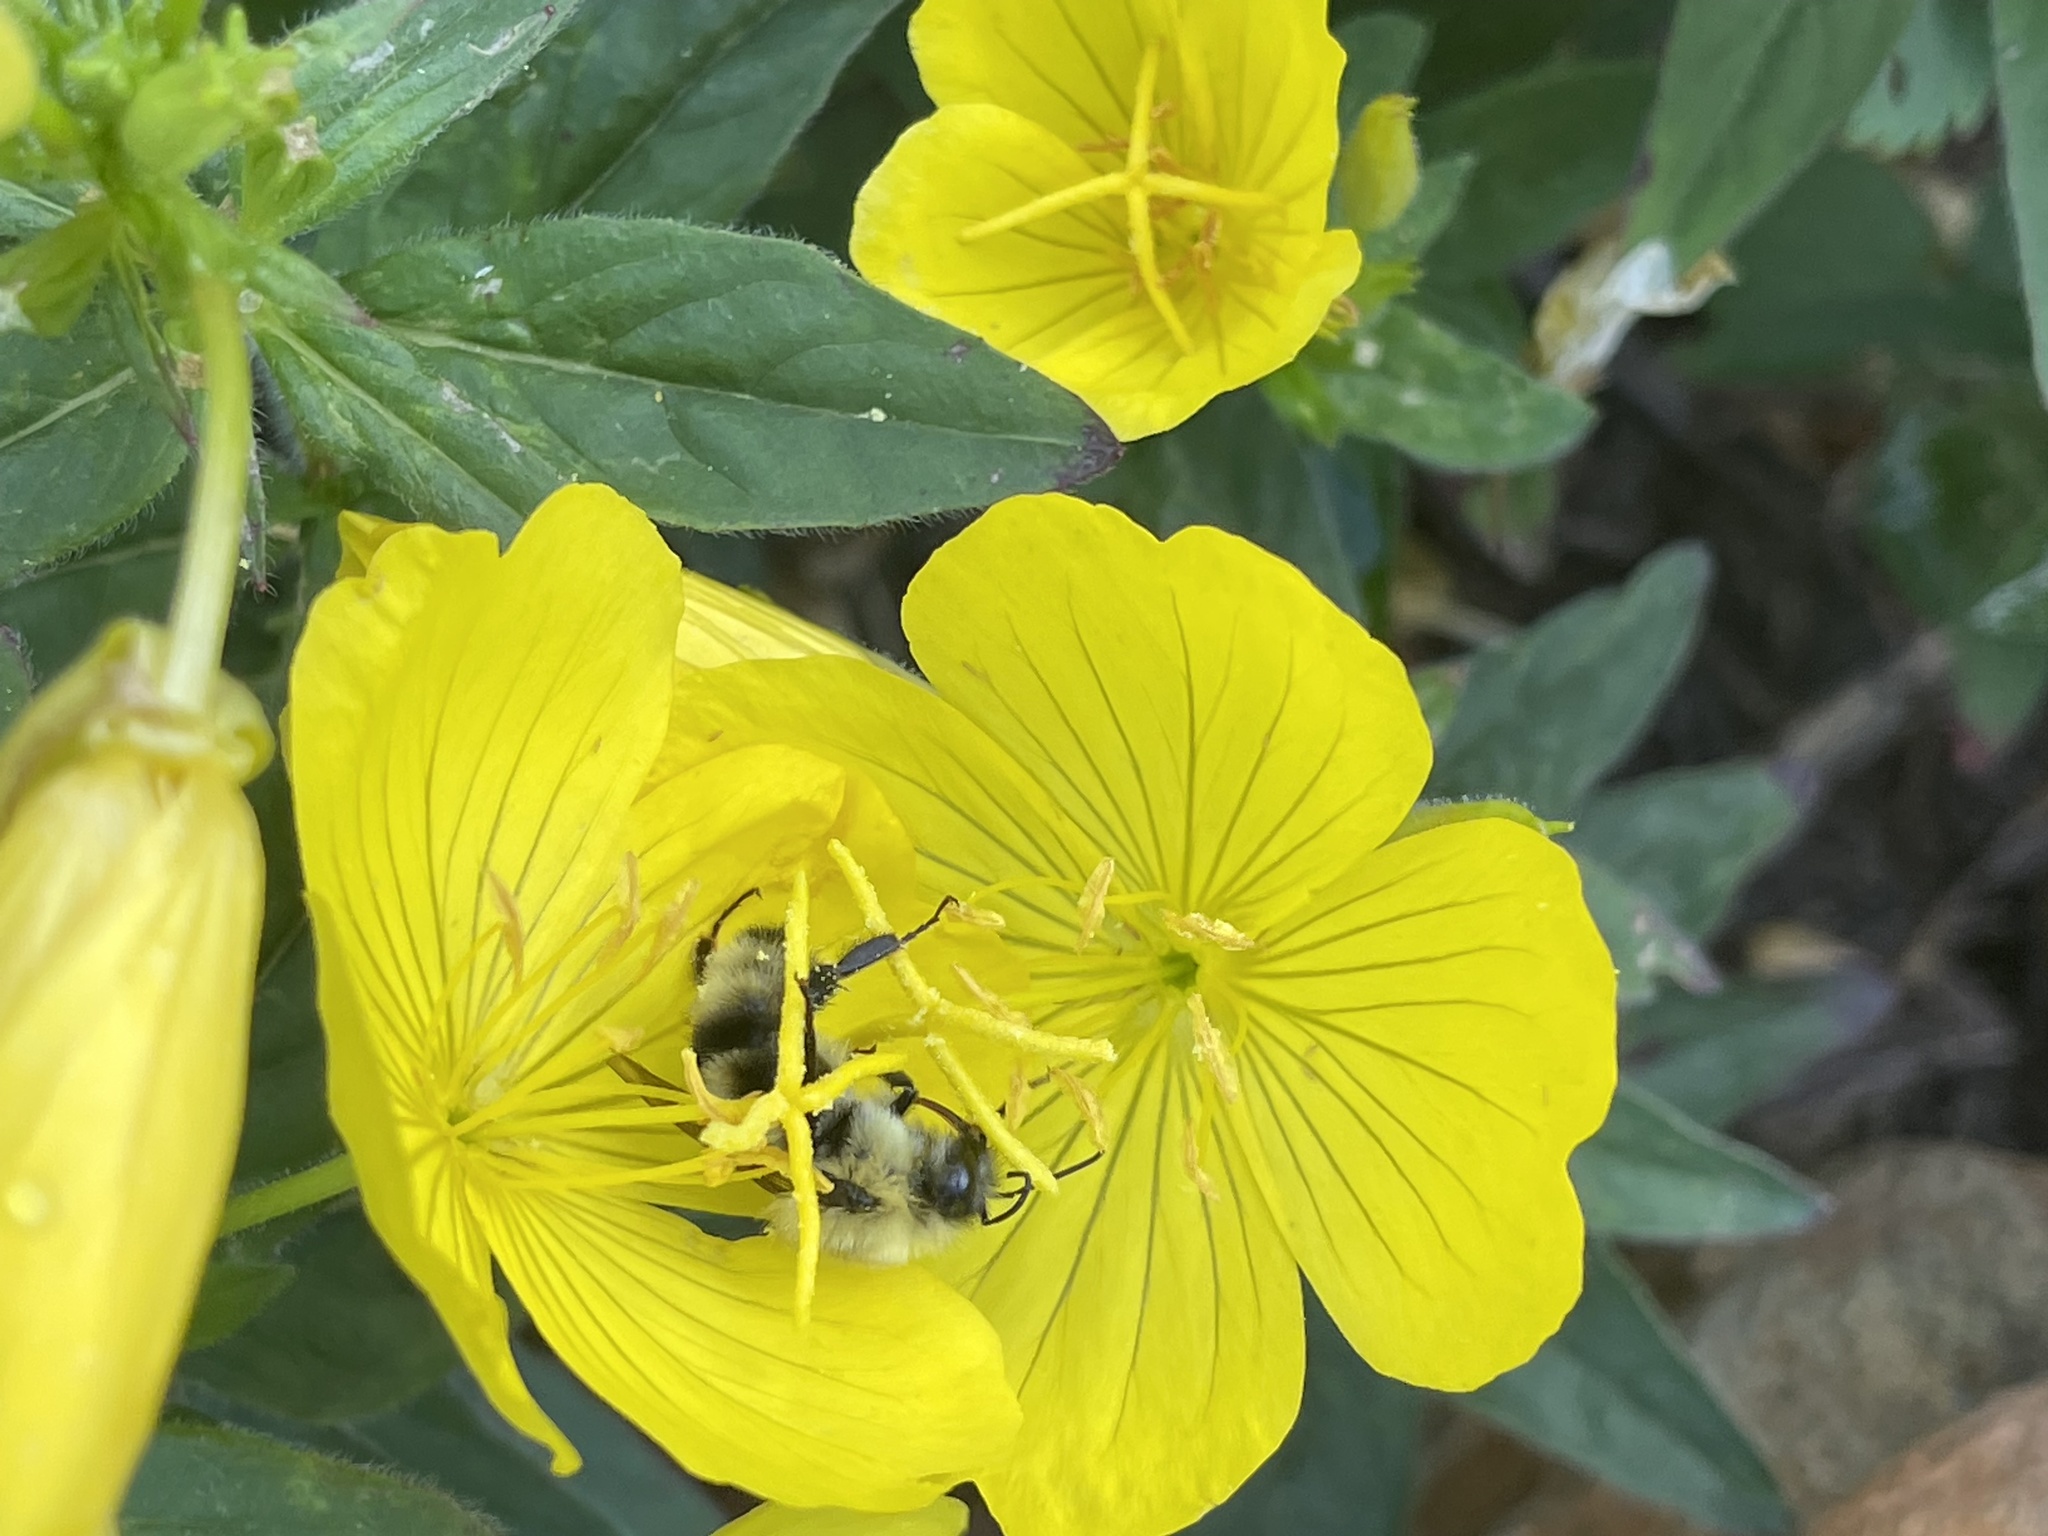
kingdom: Animalia
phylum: Arthropoda
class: Insecta
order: Hymenoptera
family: Apidae
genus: Bombus
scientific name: Bombus bimaculatus
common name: Two-spotted bumble bee
